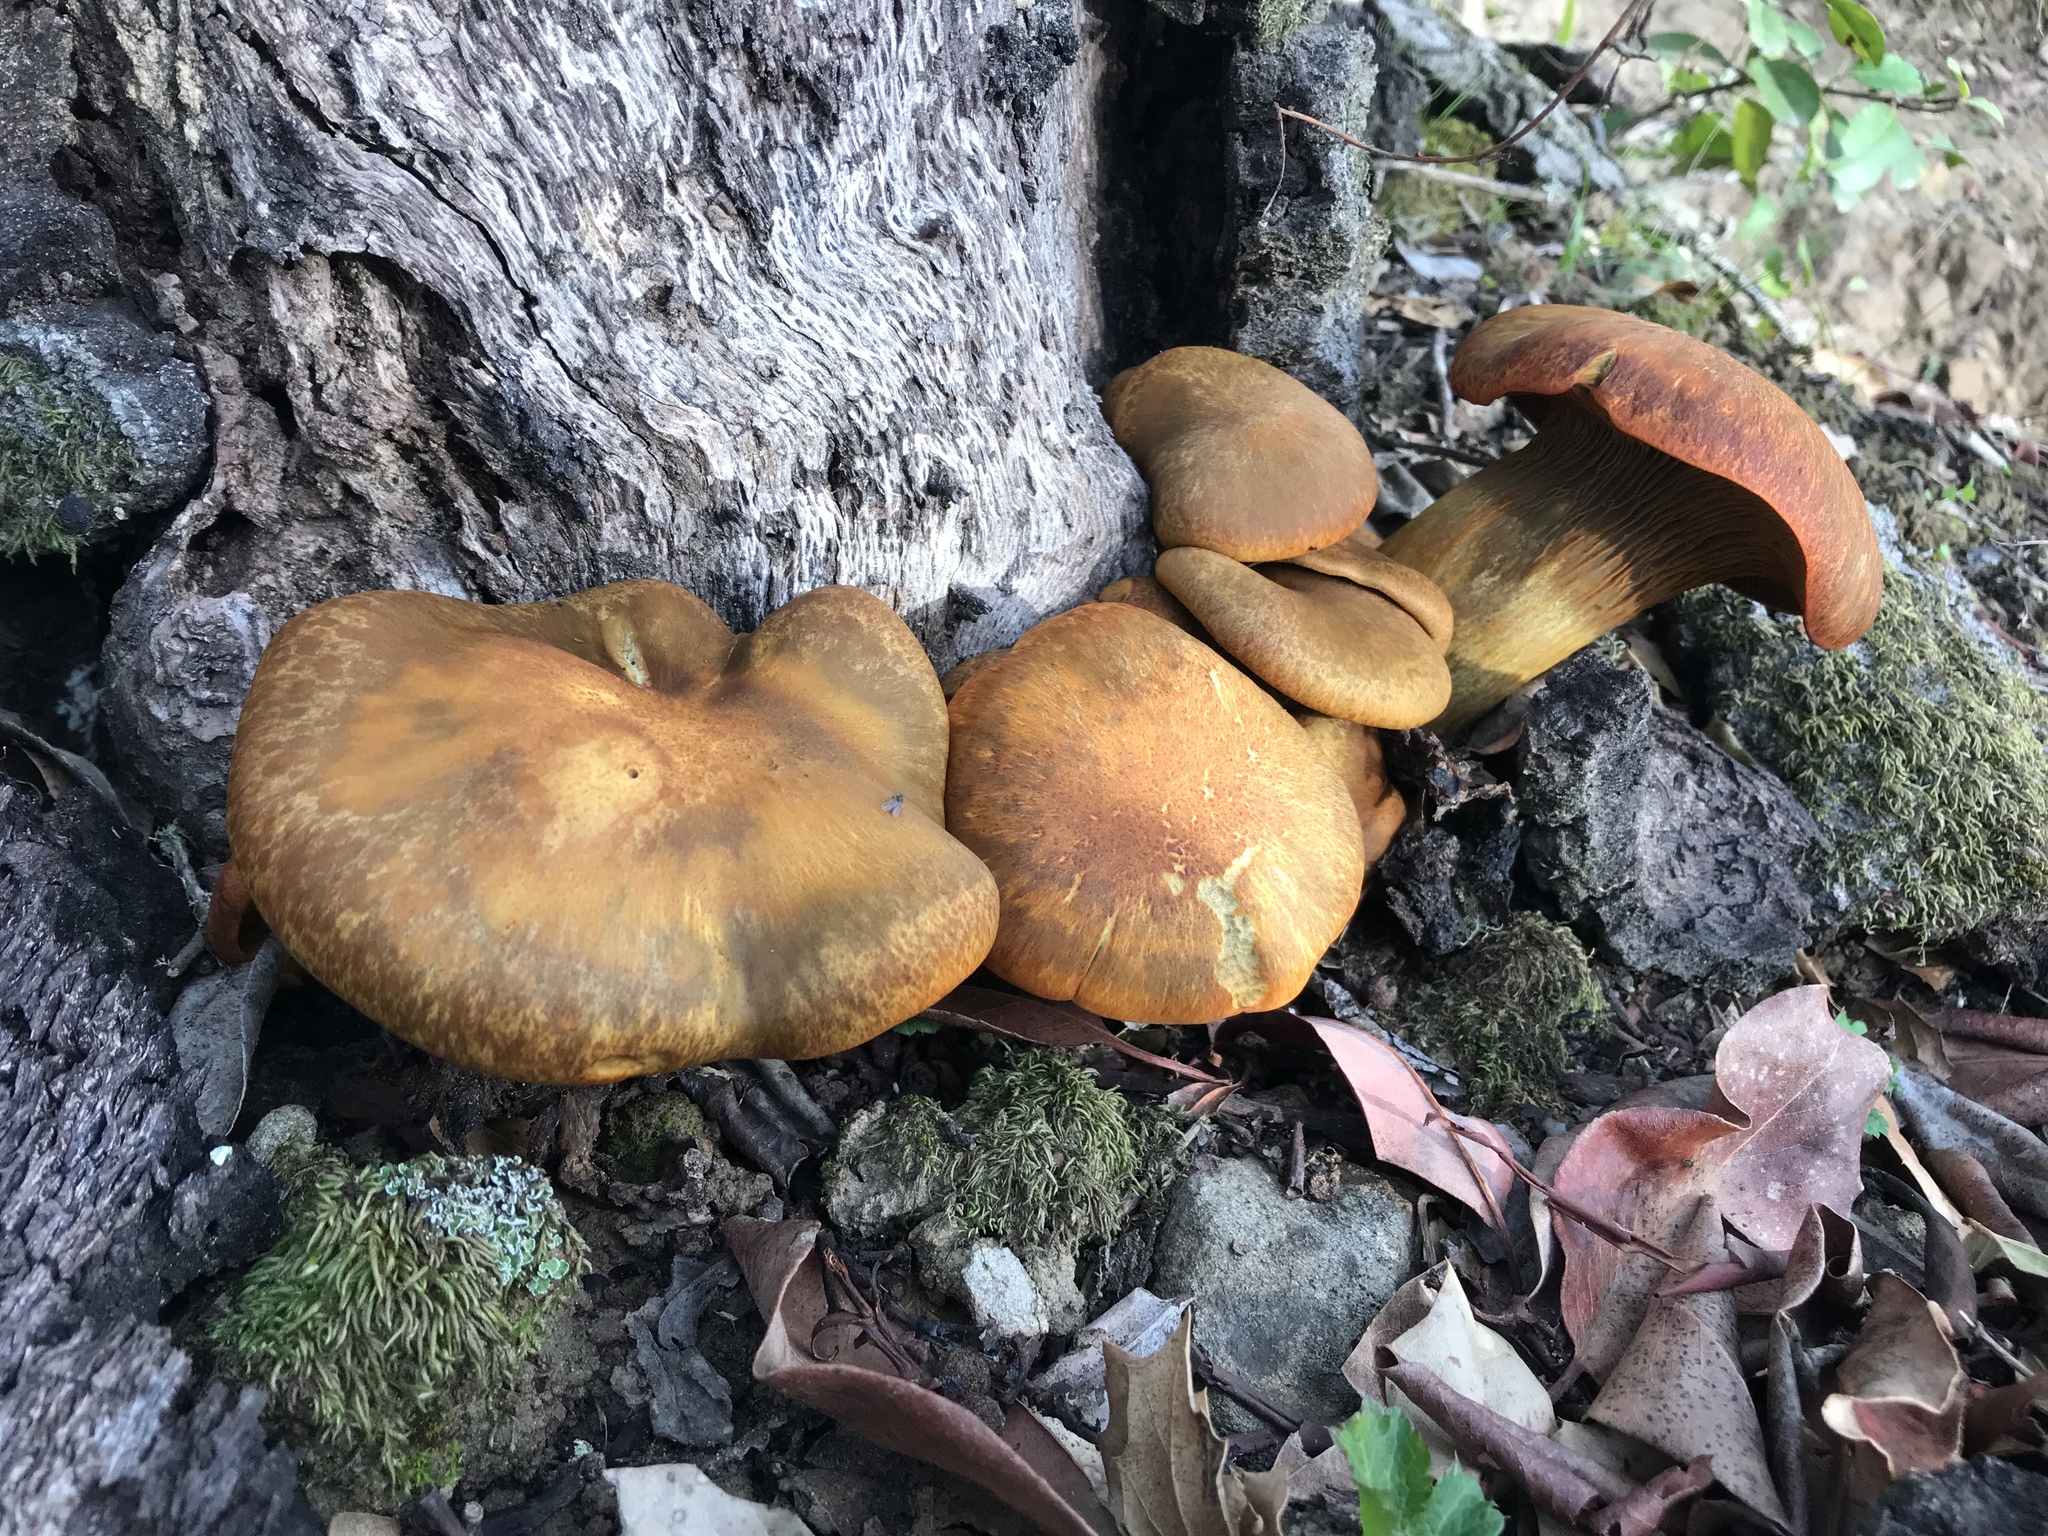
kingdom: Fungi
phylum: Basidiomycota
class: Agaricomycetes
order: Agaricales
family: Omphalotaceae
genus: Omphalotus
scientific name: Omphalotus olivascens
